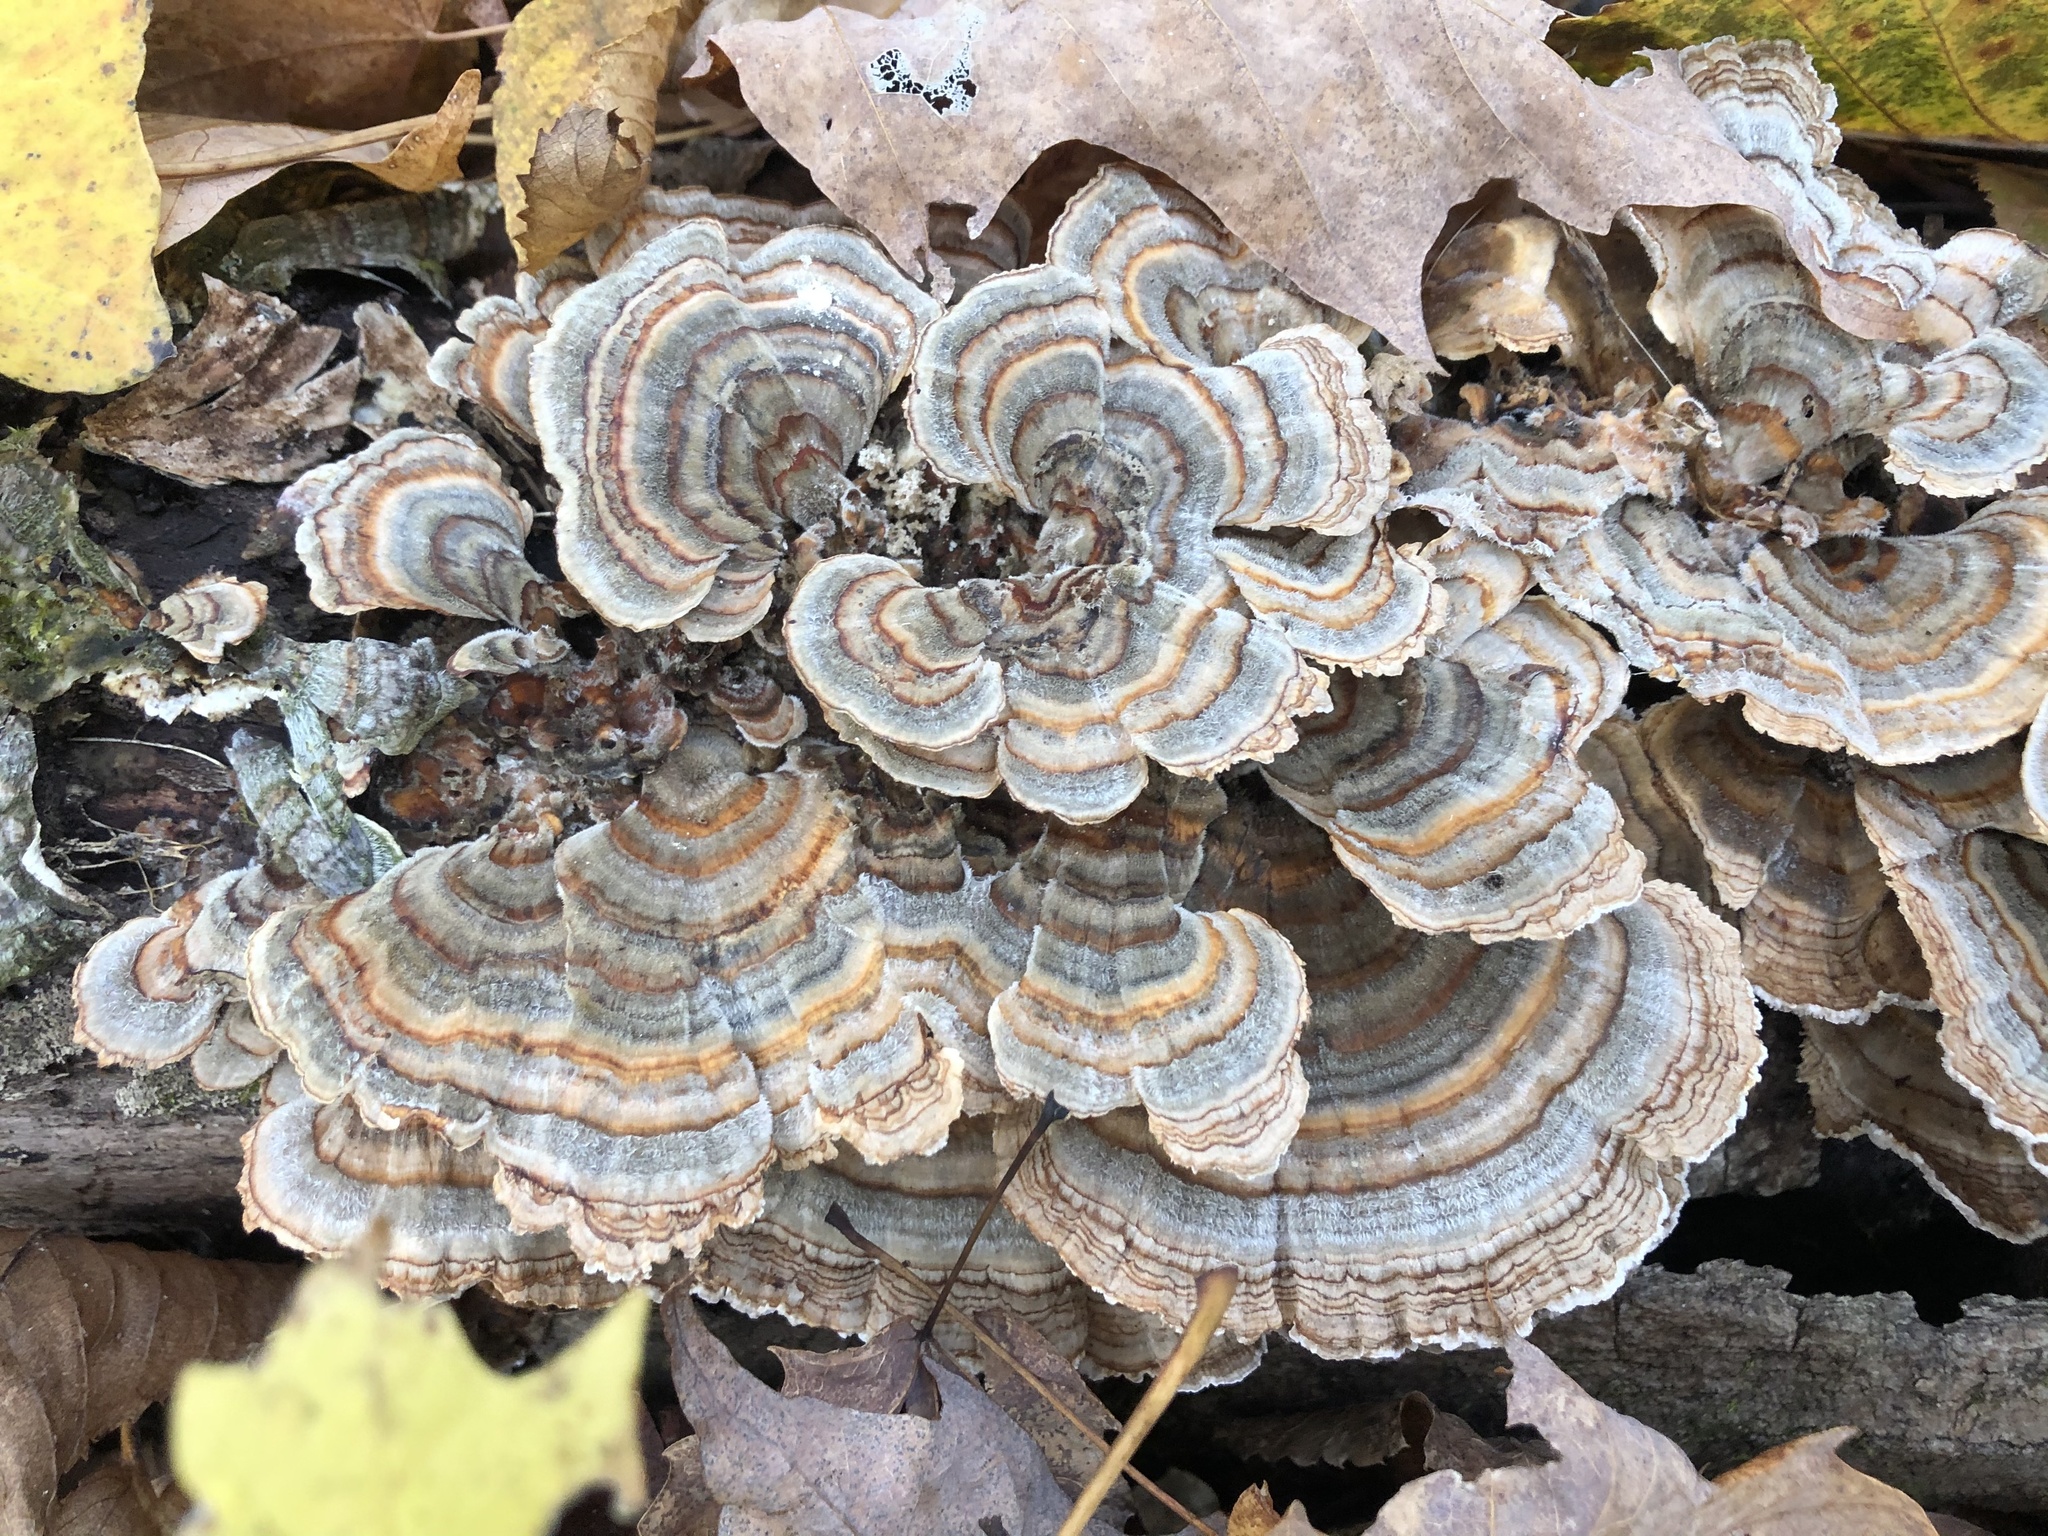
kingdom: Fungi
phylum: Basidiomycota
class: Agaricomycetes
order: Polyporales
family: Polyporaceae
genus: Trametes
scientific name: Trametes versicolor
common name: Turkeytail
